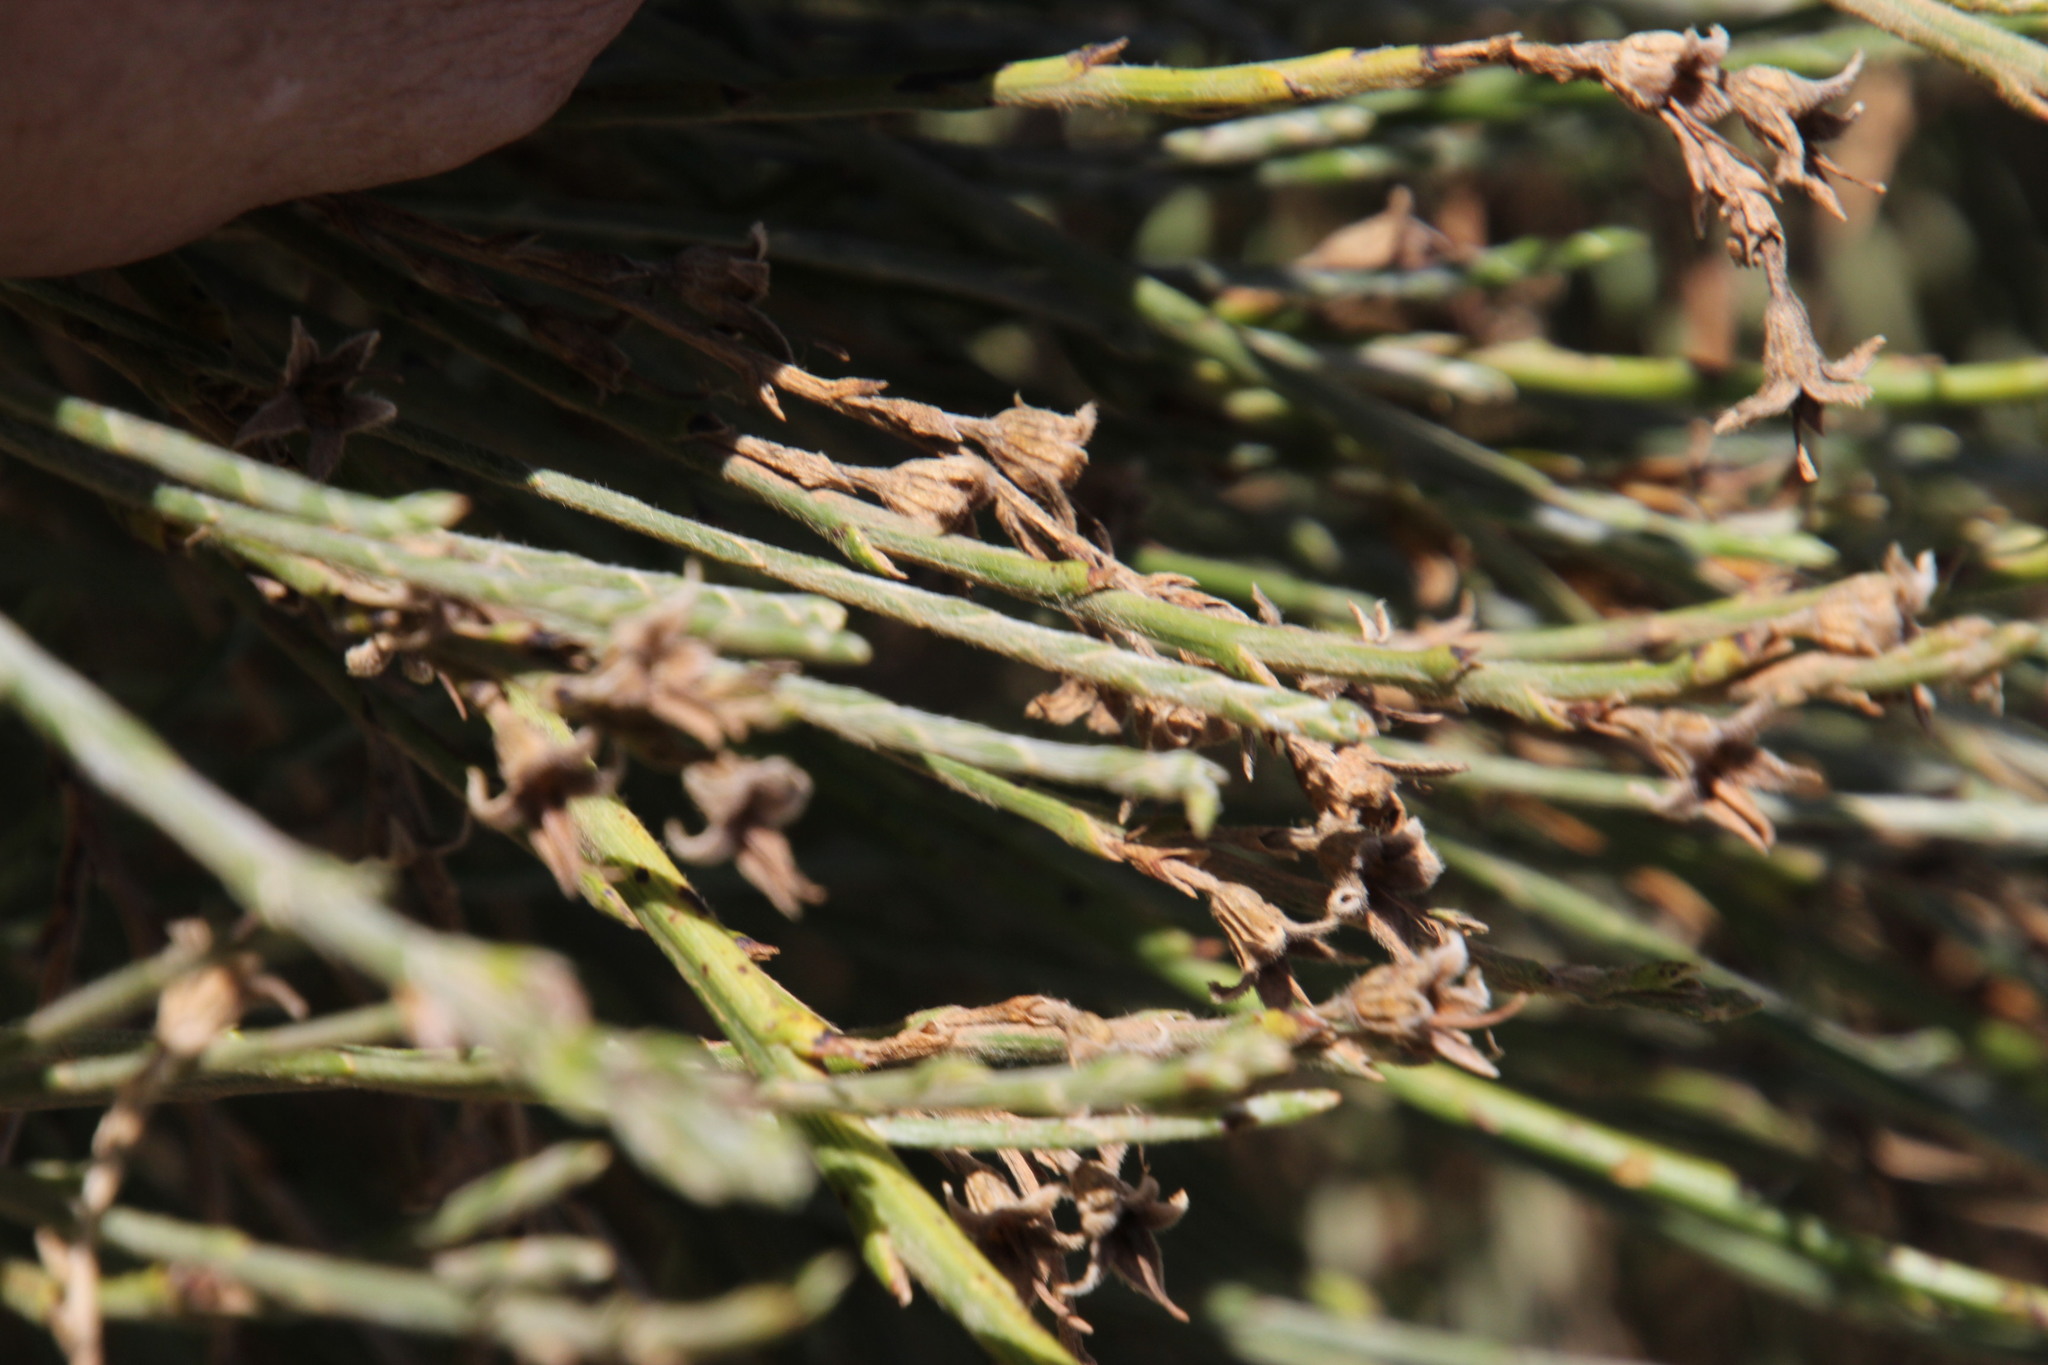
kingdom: Plantae
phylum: Tracheophyta
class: Magnoliopsida
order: Fabales
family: Fabaceae
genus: Psoralea
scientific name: Psoralea aphylla
